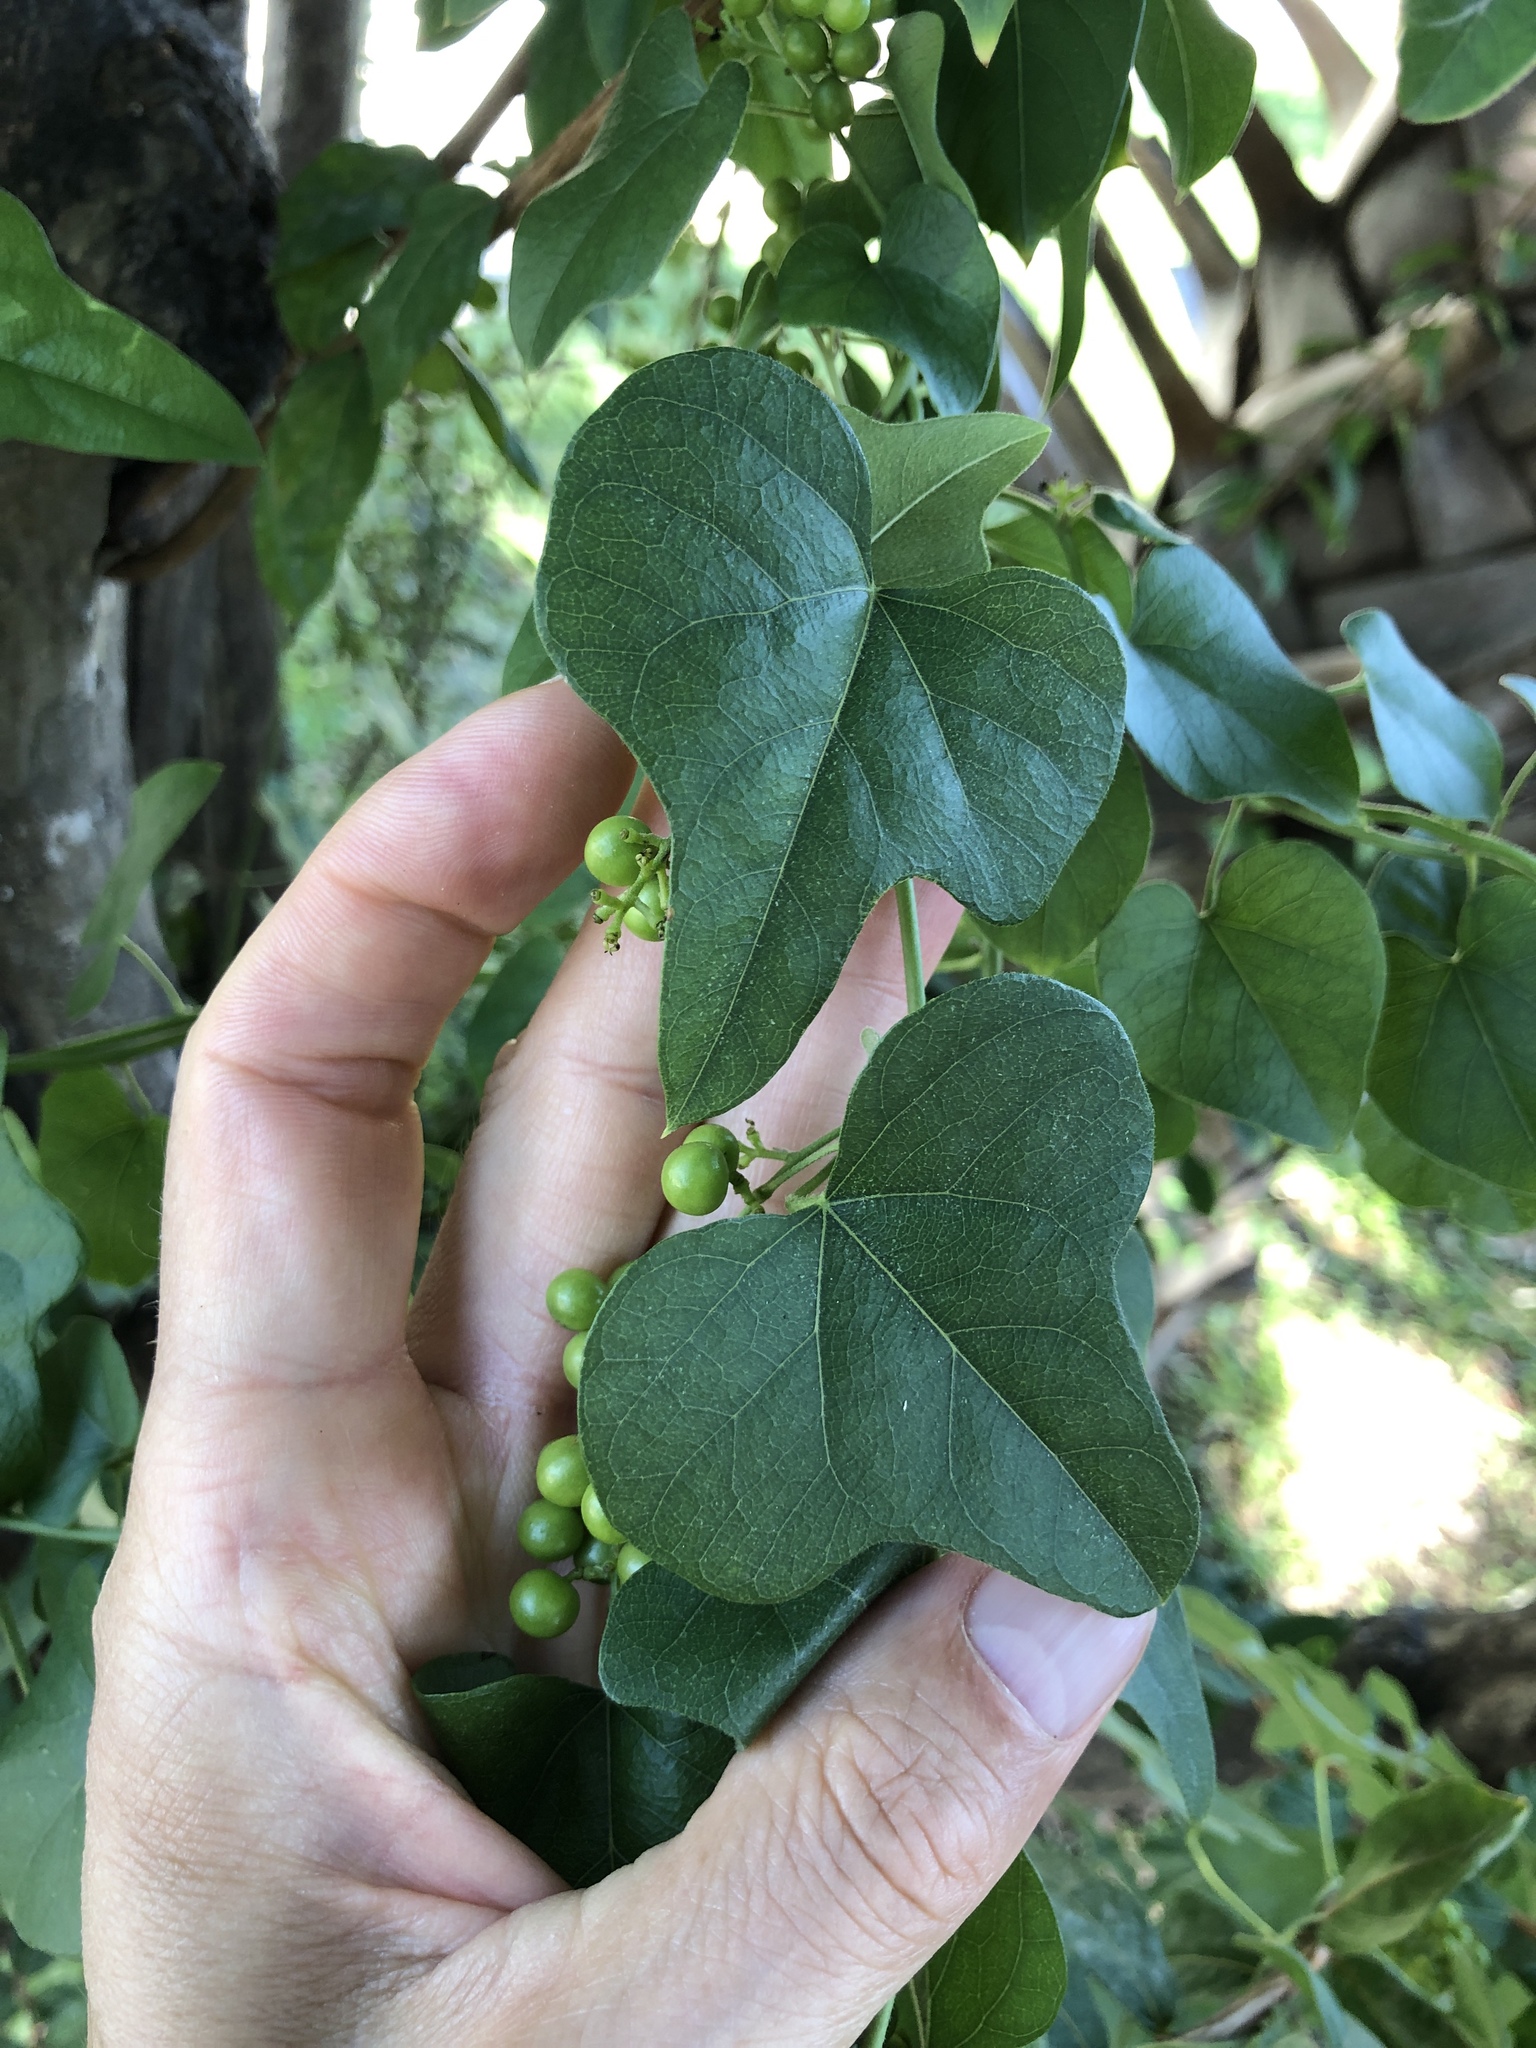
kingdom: Plantae
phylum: Tracheophyta
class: Magnoliopsida
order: Ranunculales
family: Menispermaceae
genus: Cocculus
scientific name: Cocculus carolinus
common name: Carolina moonseed
